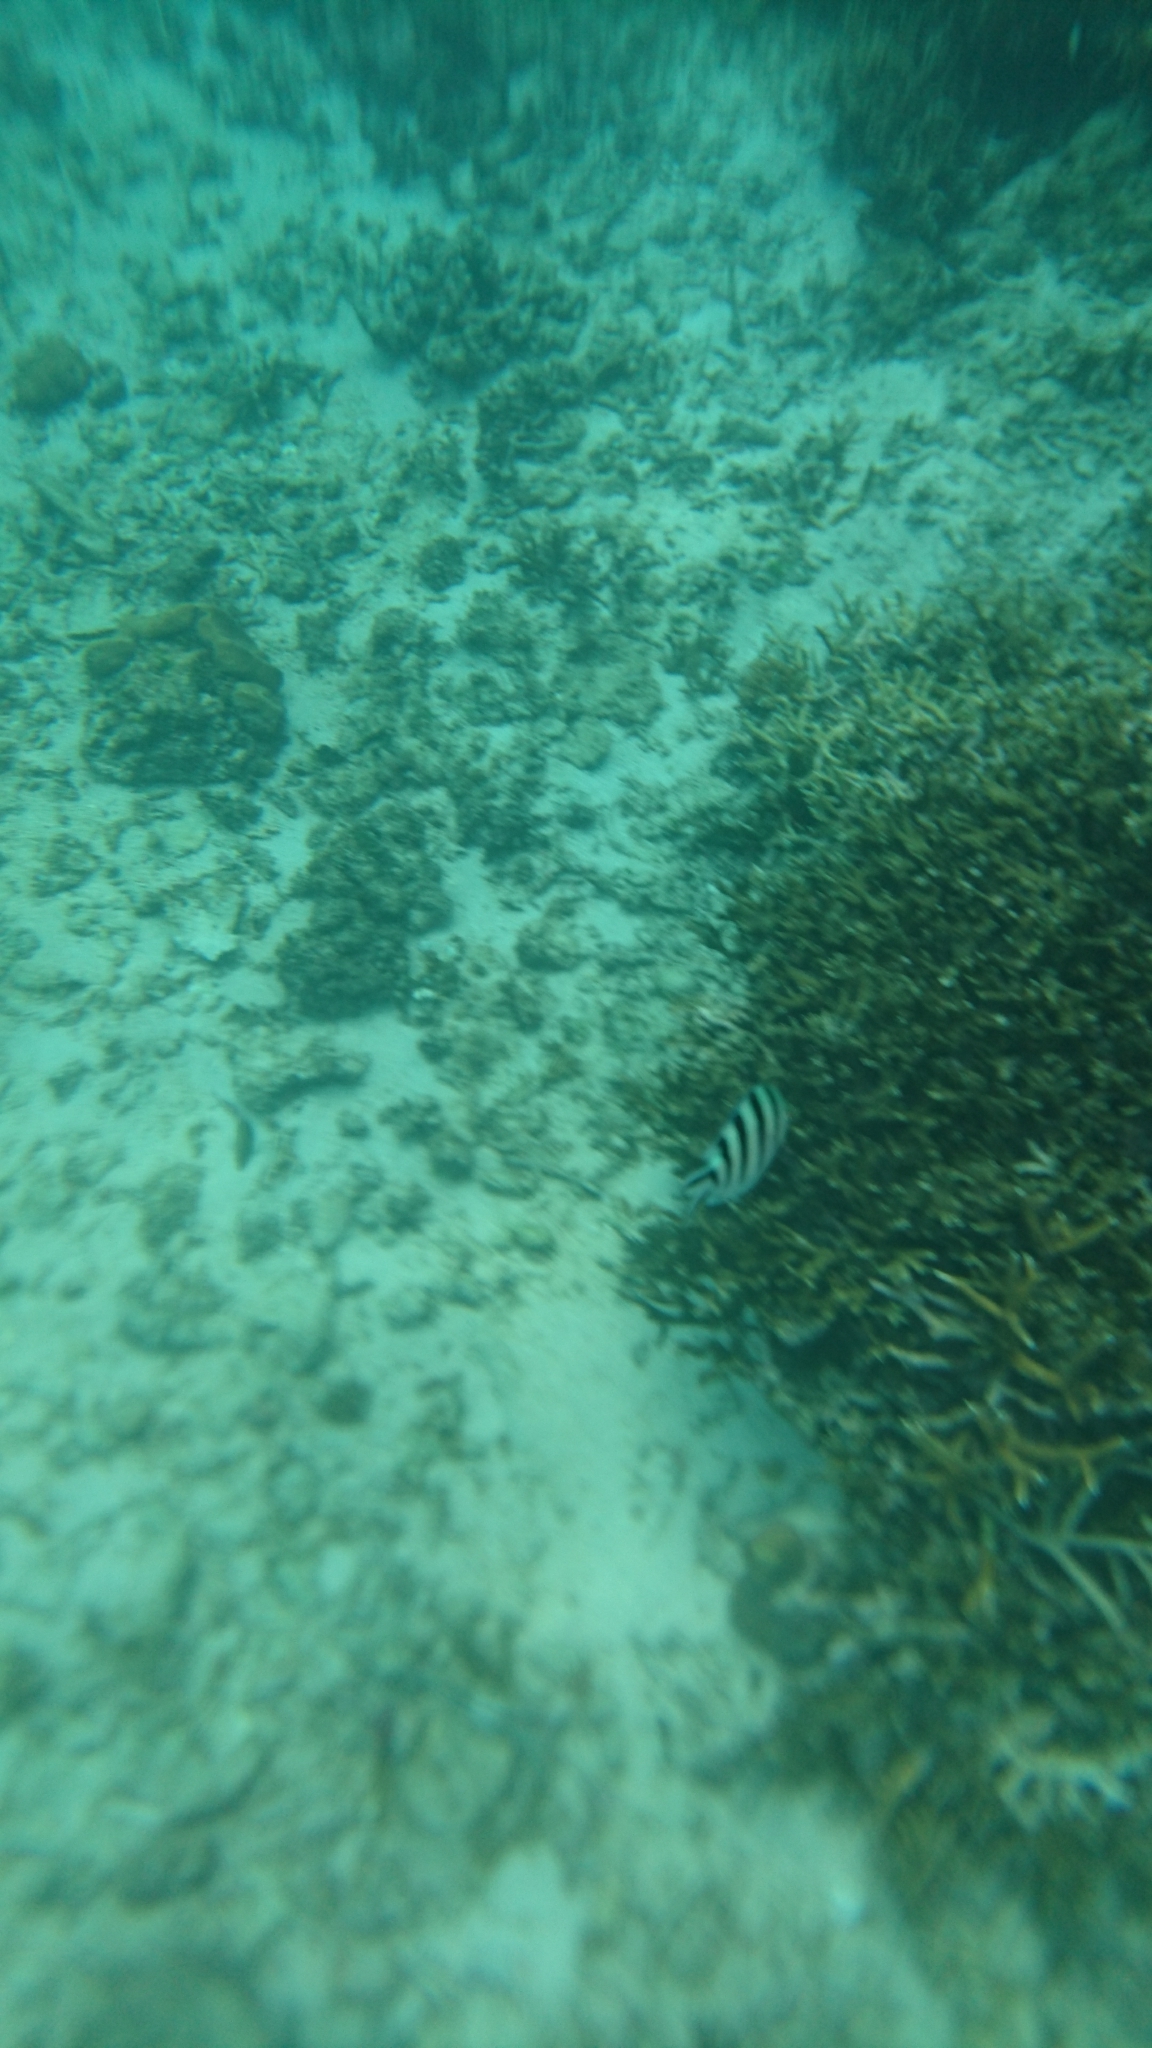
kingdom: Animalia
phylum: Chordata
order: Perciformes
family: Pomacentridae
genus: Abudefduf
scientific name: Abudefduf sexfasciatus
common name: Scissortail sergeant
